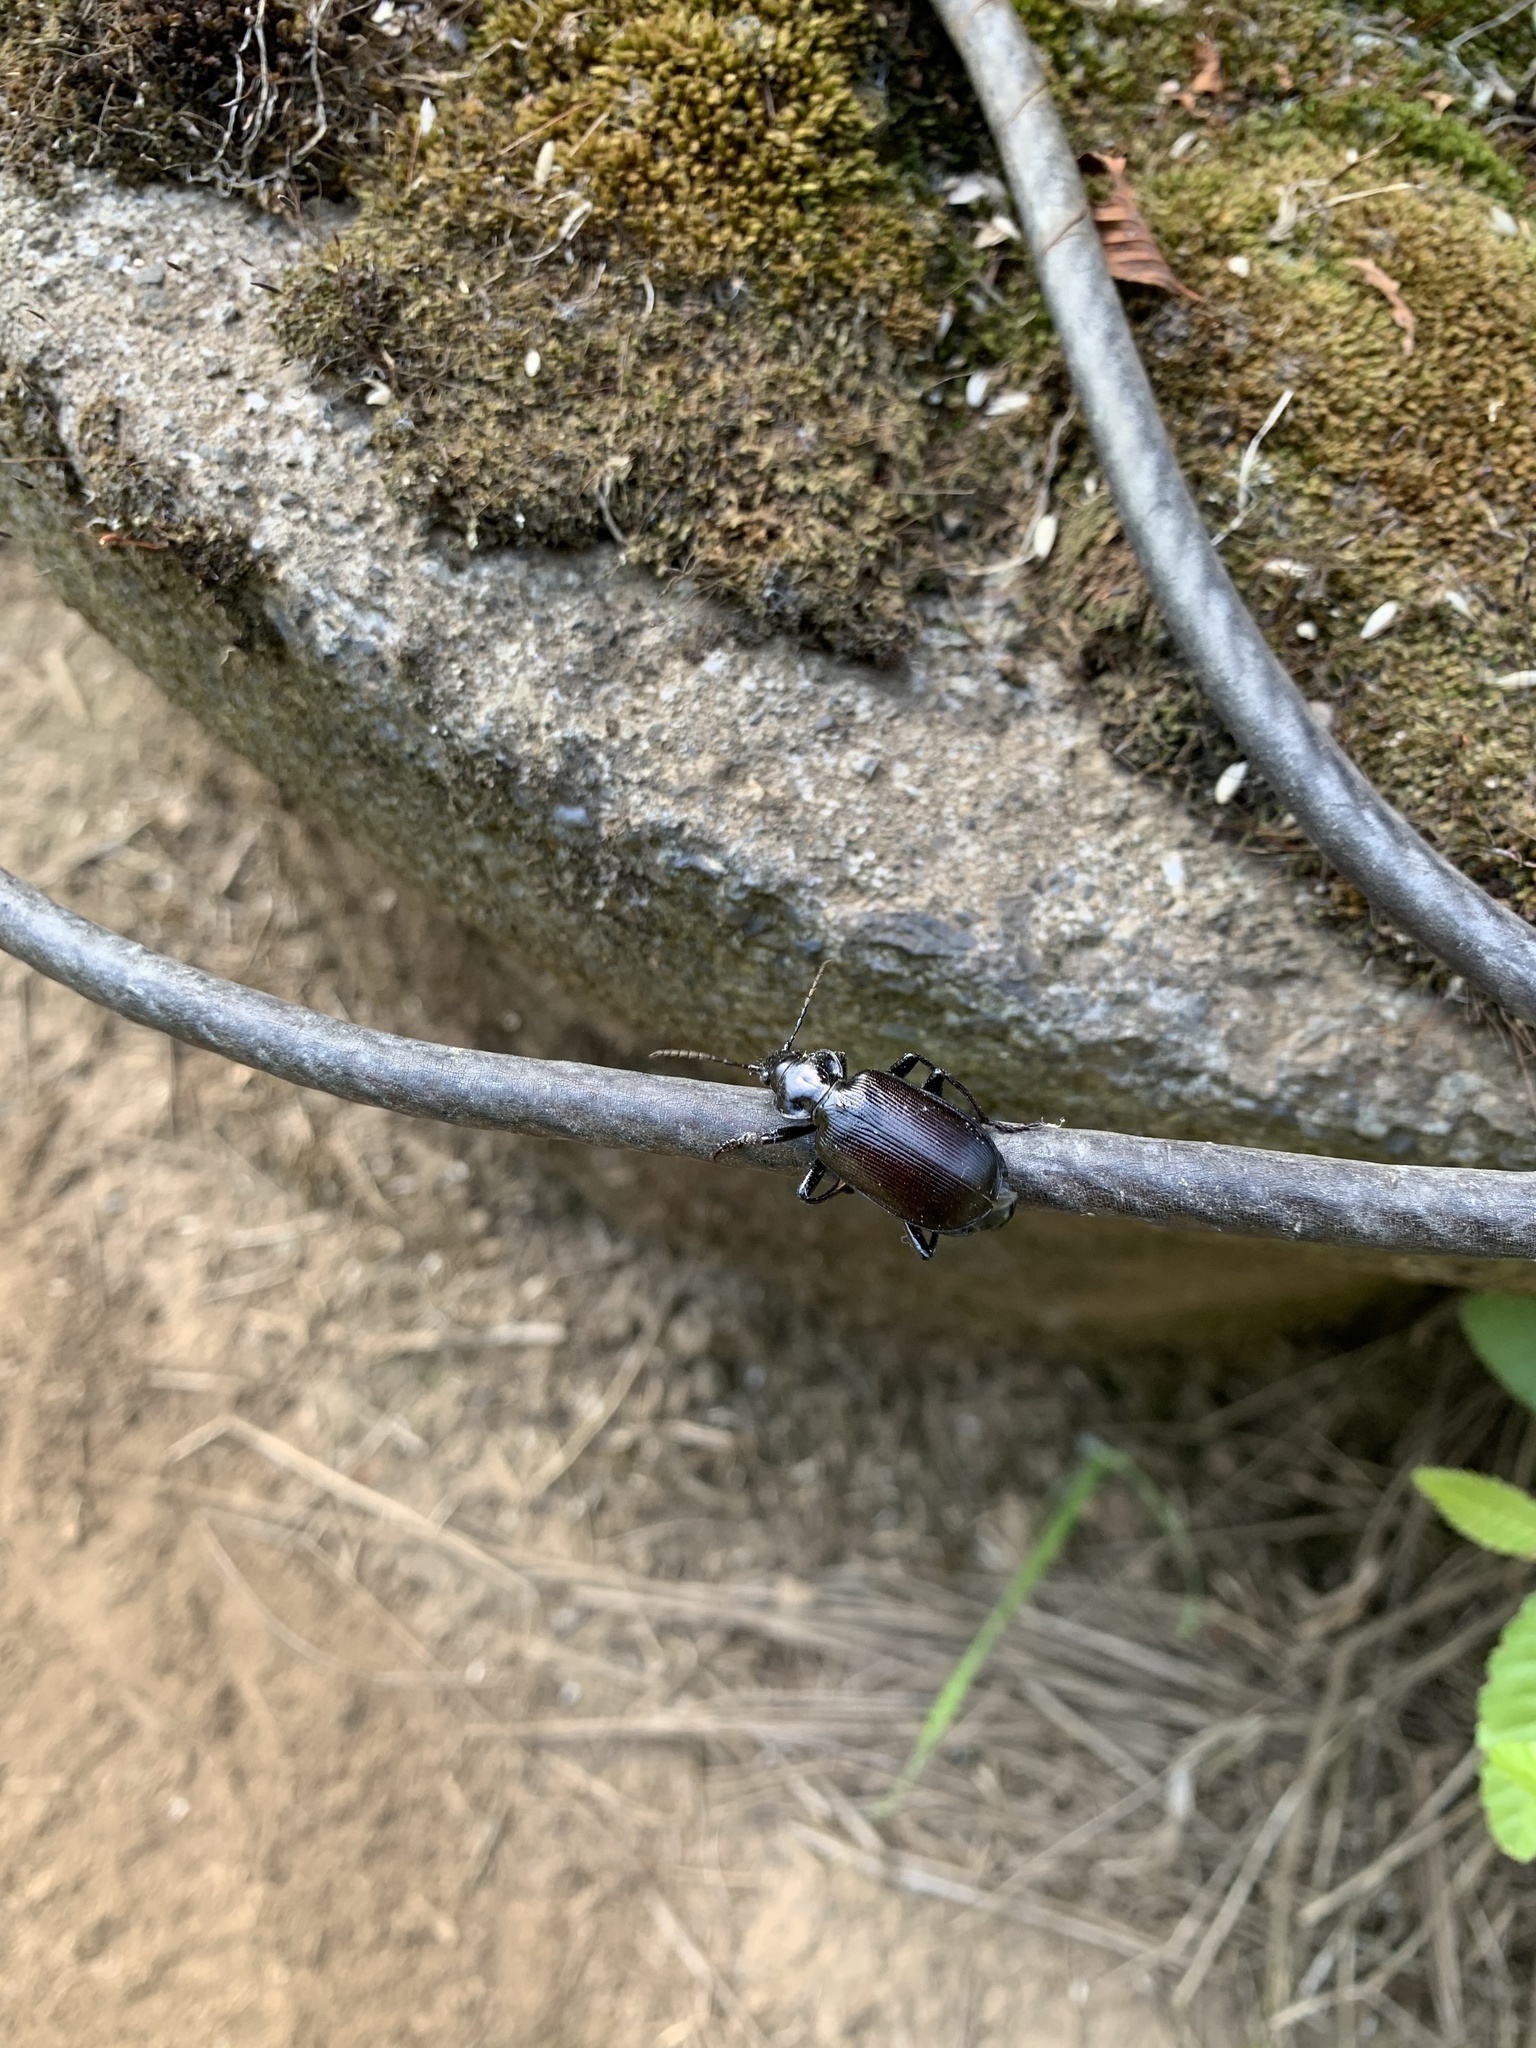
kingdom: Animalia
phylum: Arthropoda
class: Insecta
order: Coleoptera
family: Carabidae
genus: Calosoma
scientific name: Calosoma vagans
